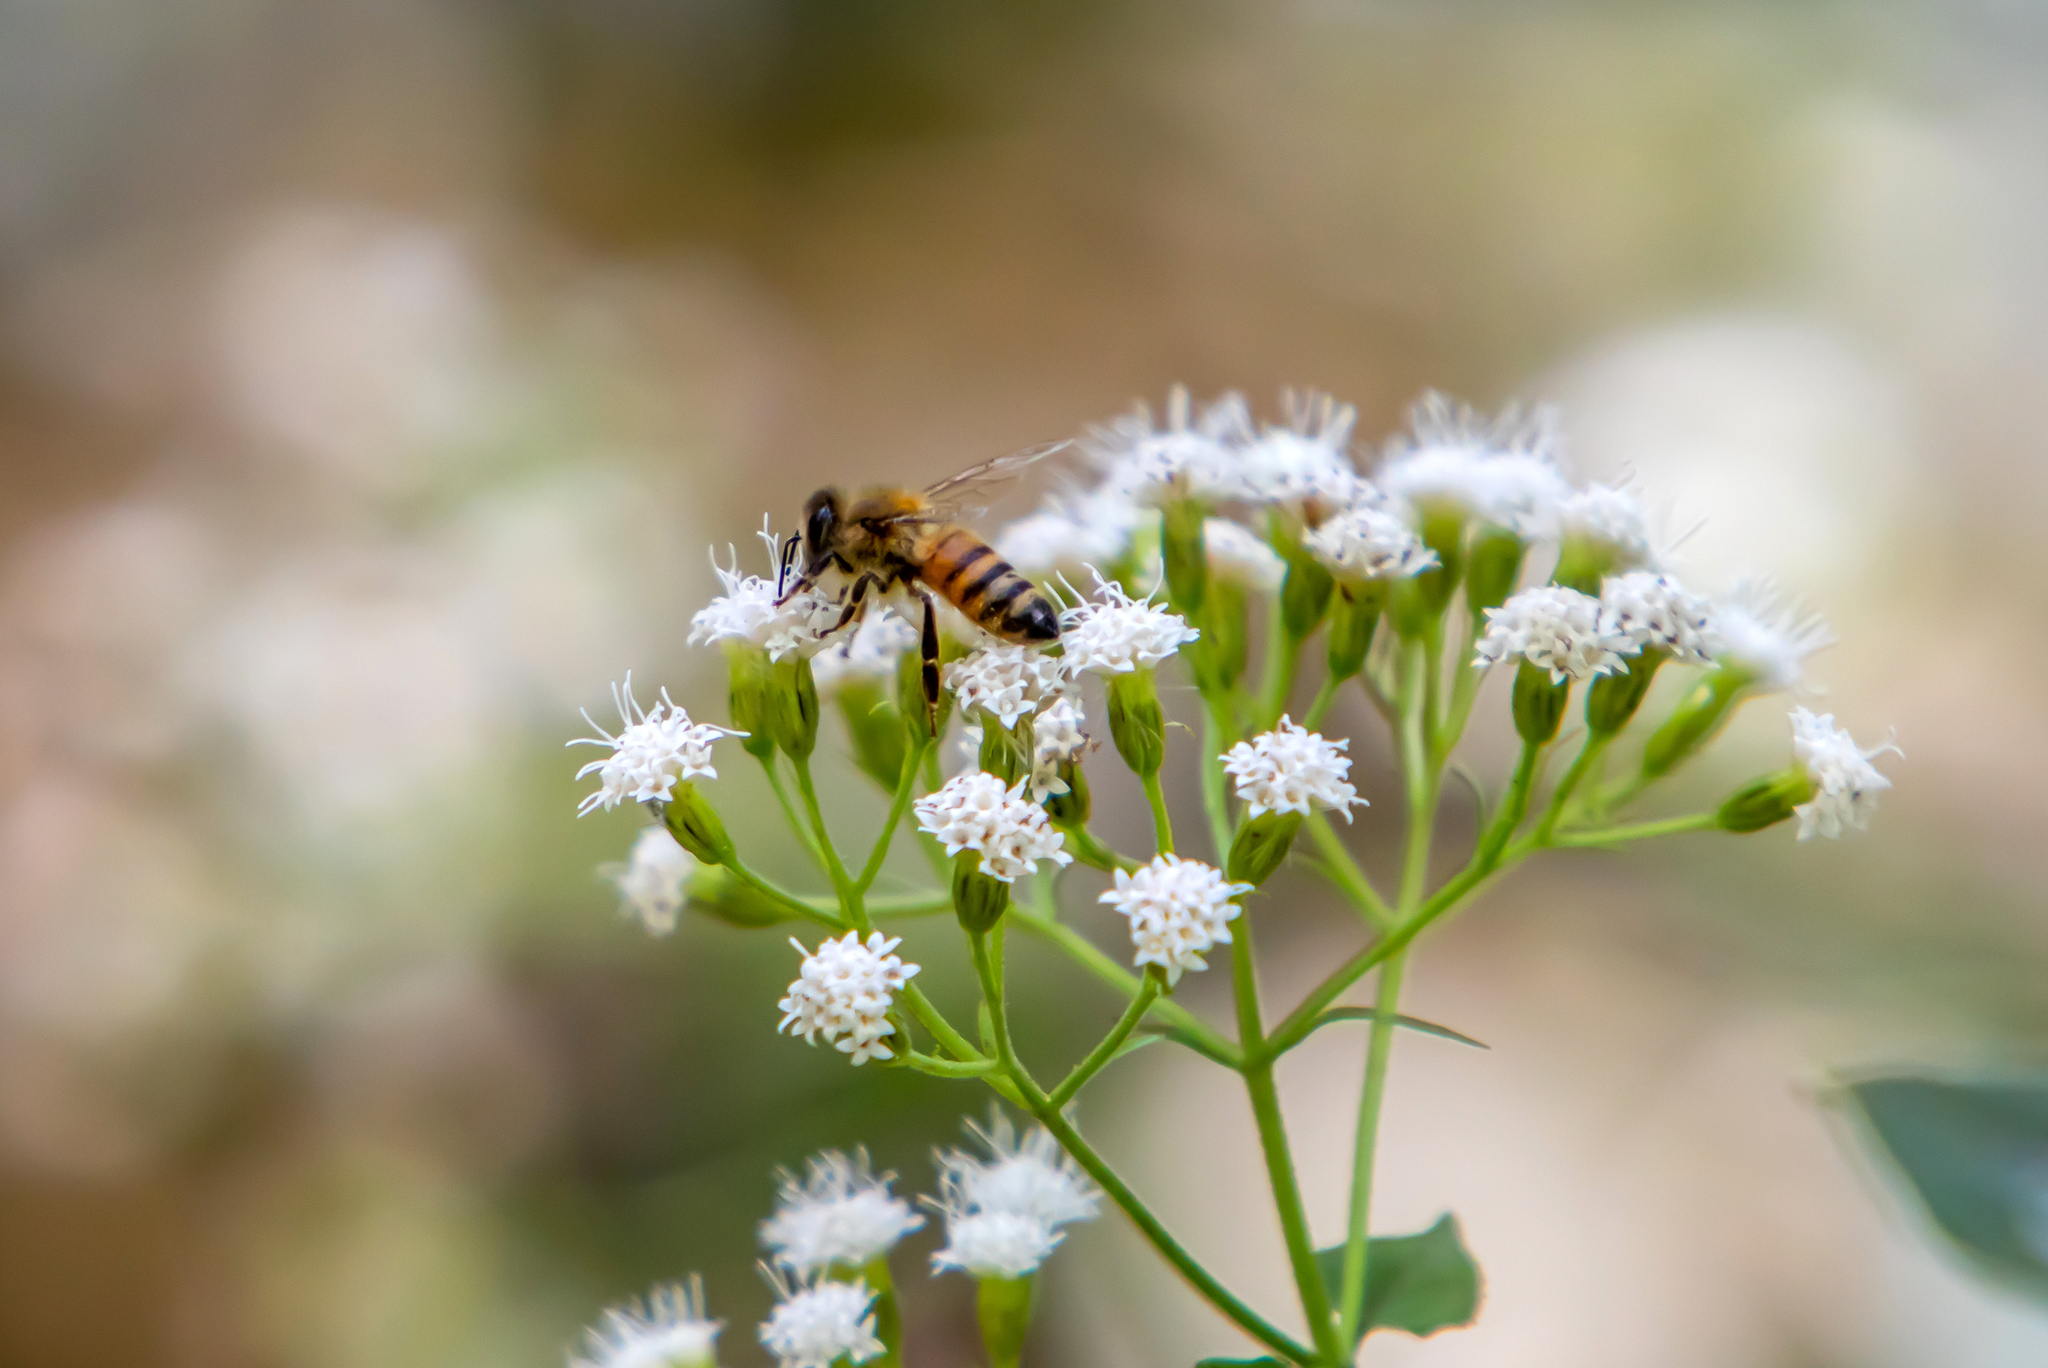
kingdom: Animalia
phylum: Arthropoda
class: Insecta
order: Hymenoptera
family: Apidae
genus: Apis
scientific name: Apis mellifera
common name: Honey bee
